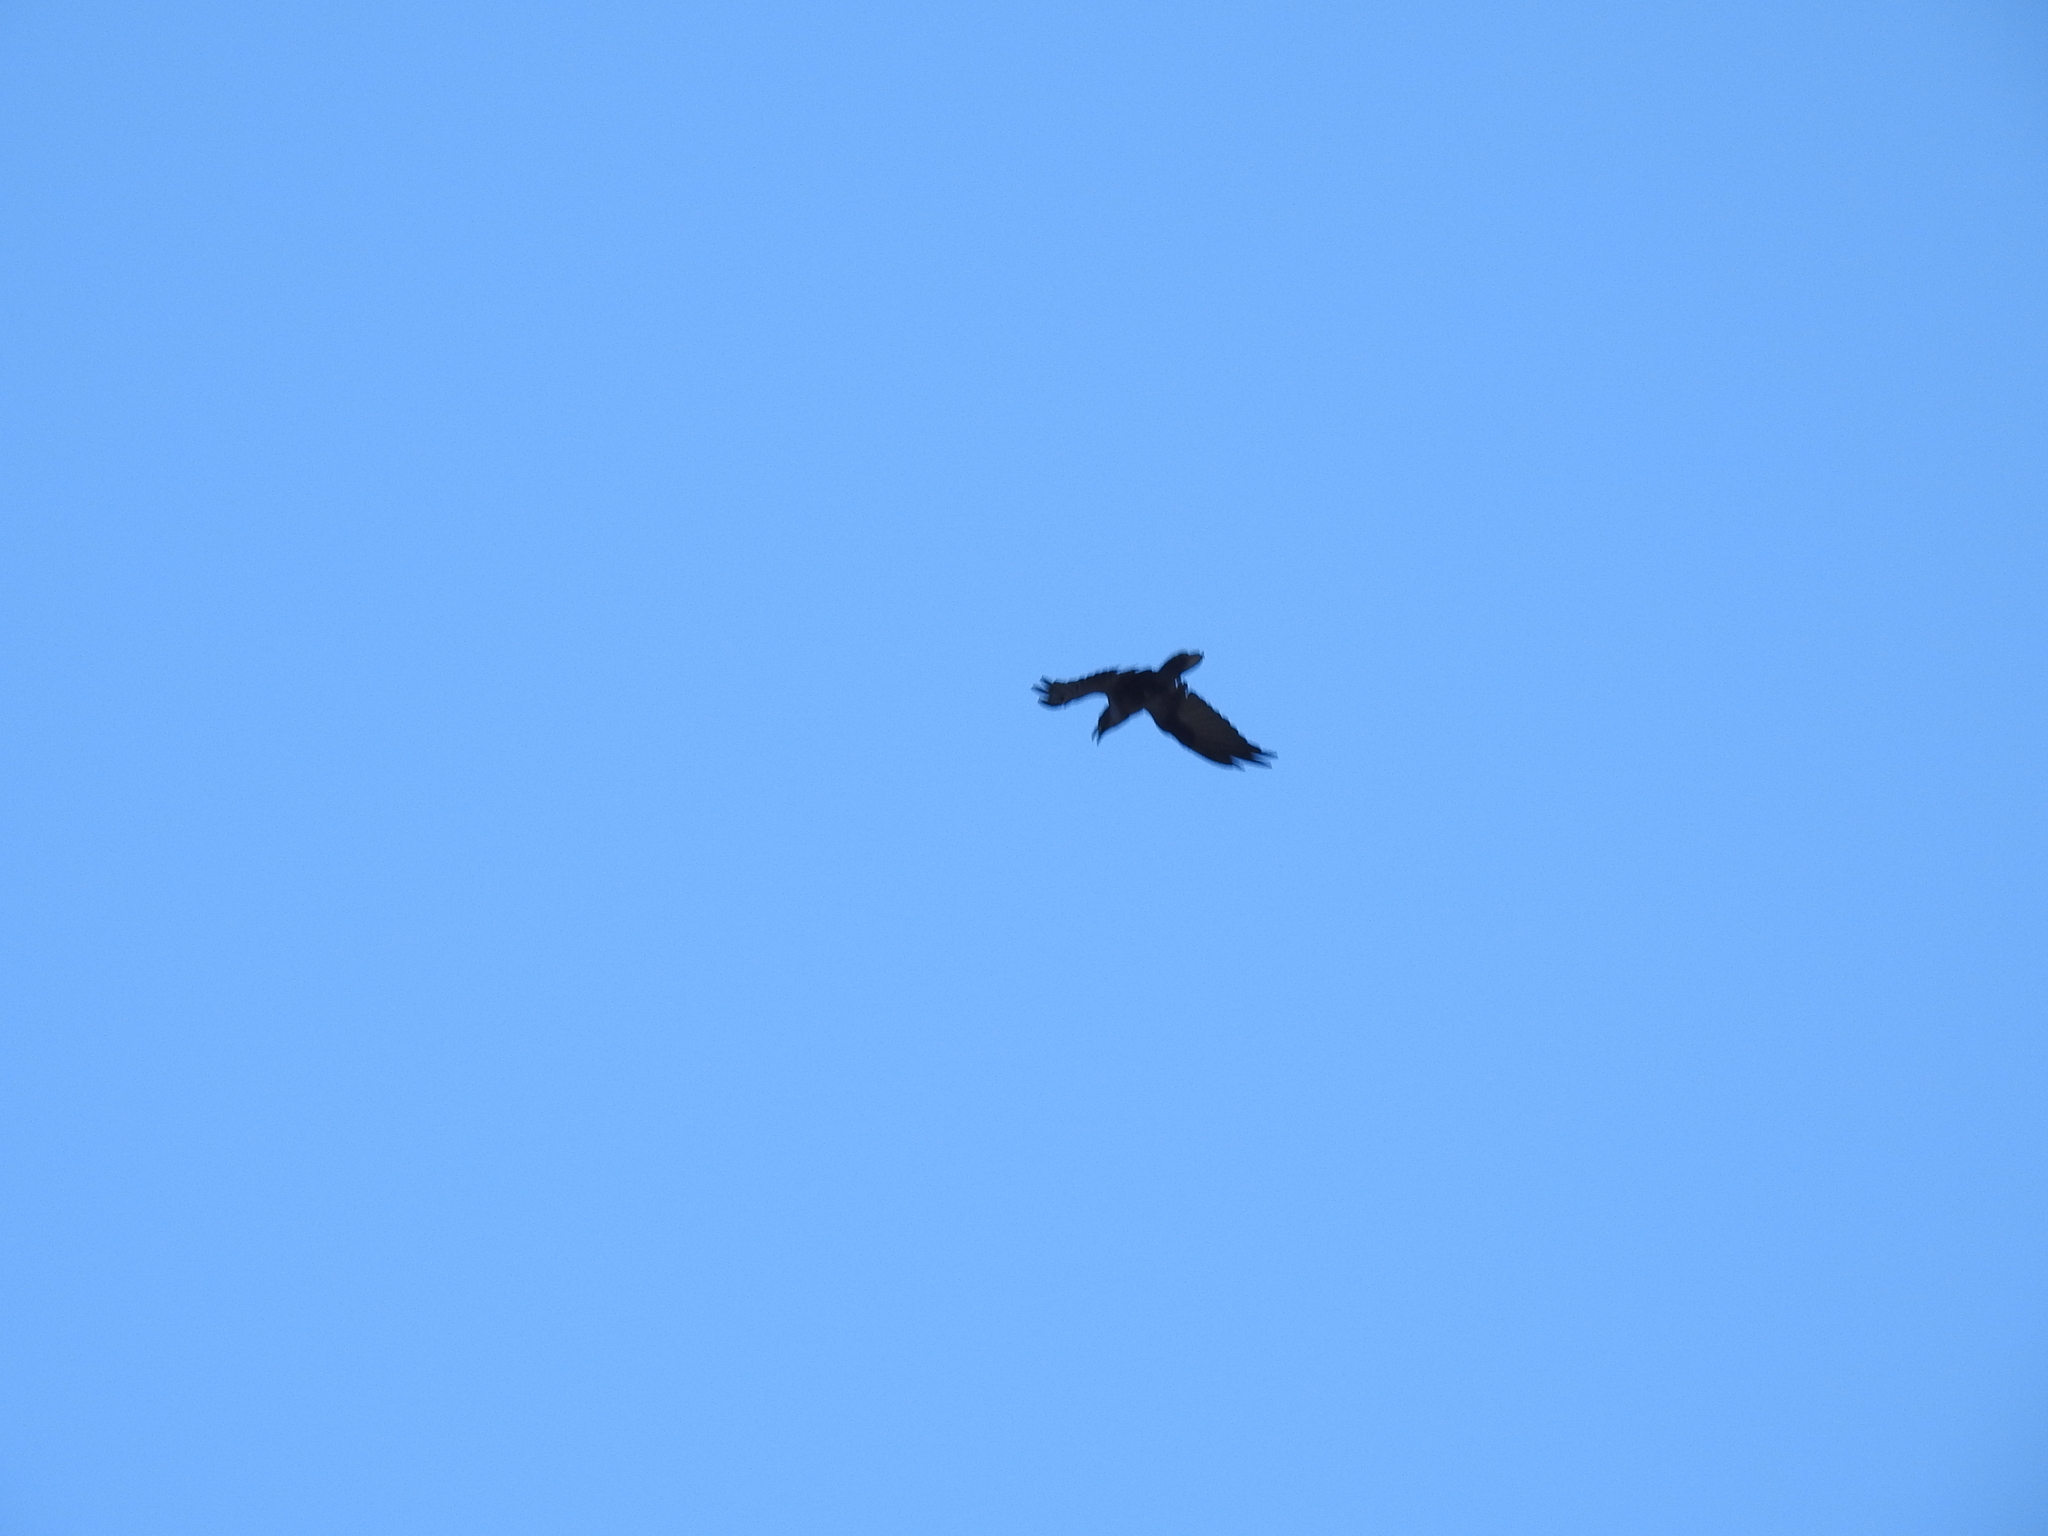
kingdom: Animalia
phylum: Chordata
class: Aves
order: Passeriformes
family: Corvidae
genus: Corvus
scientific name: Corvus corax
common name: Common raven
